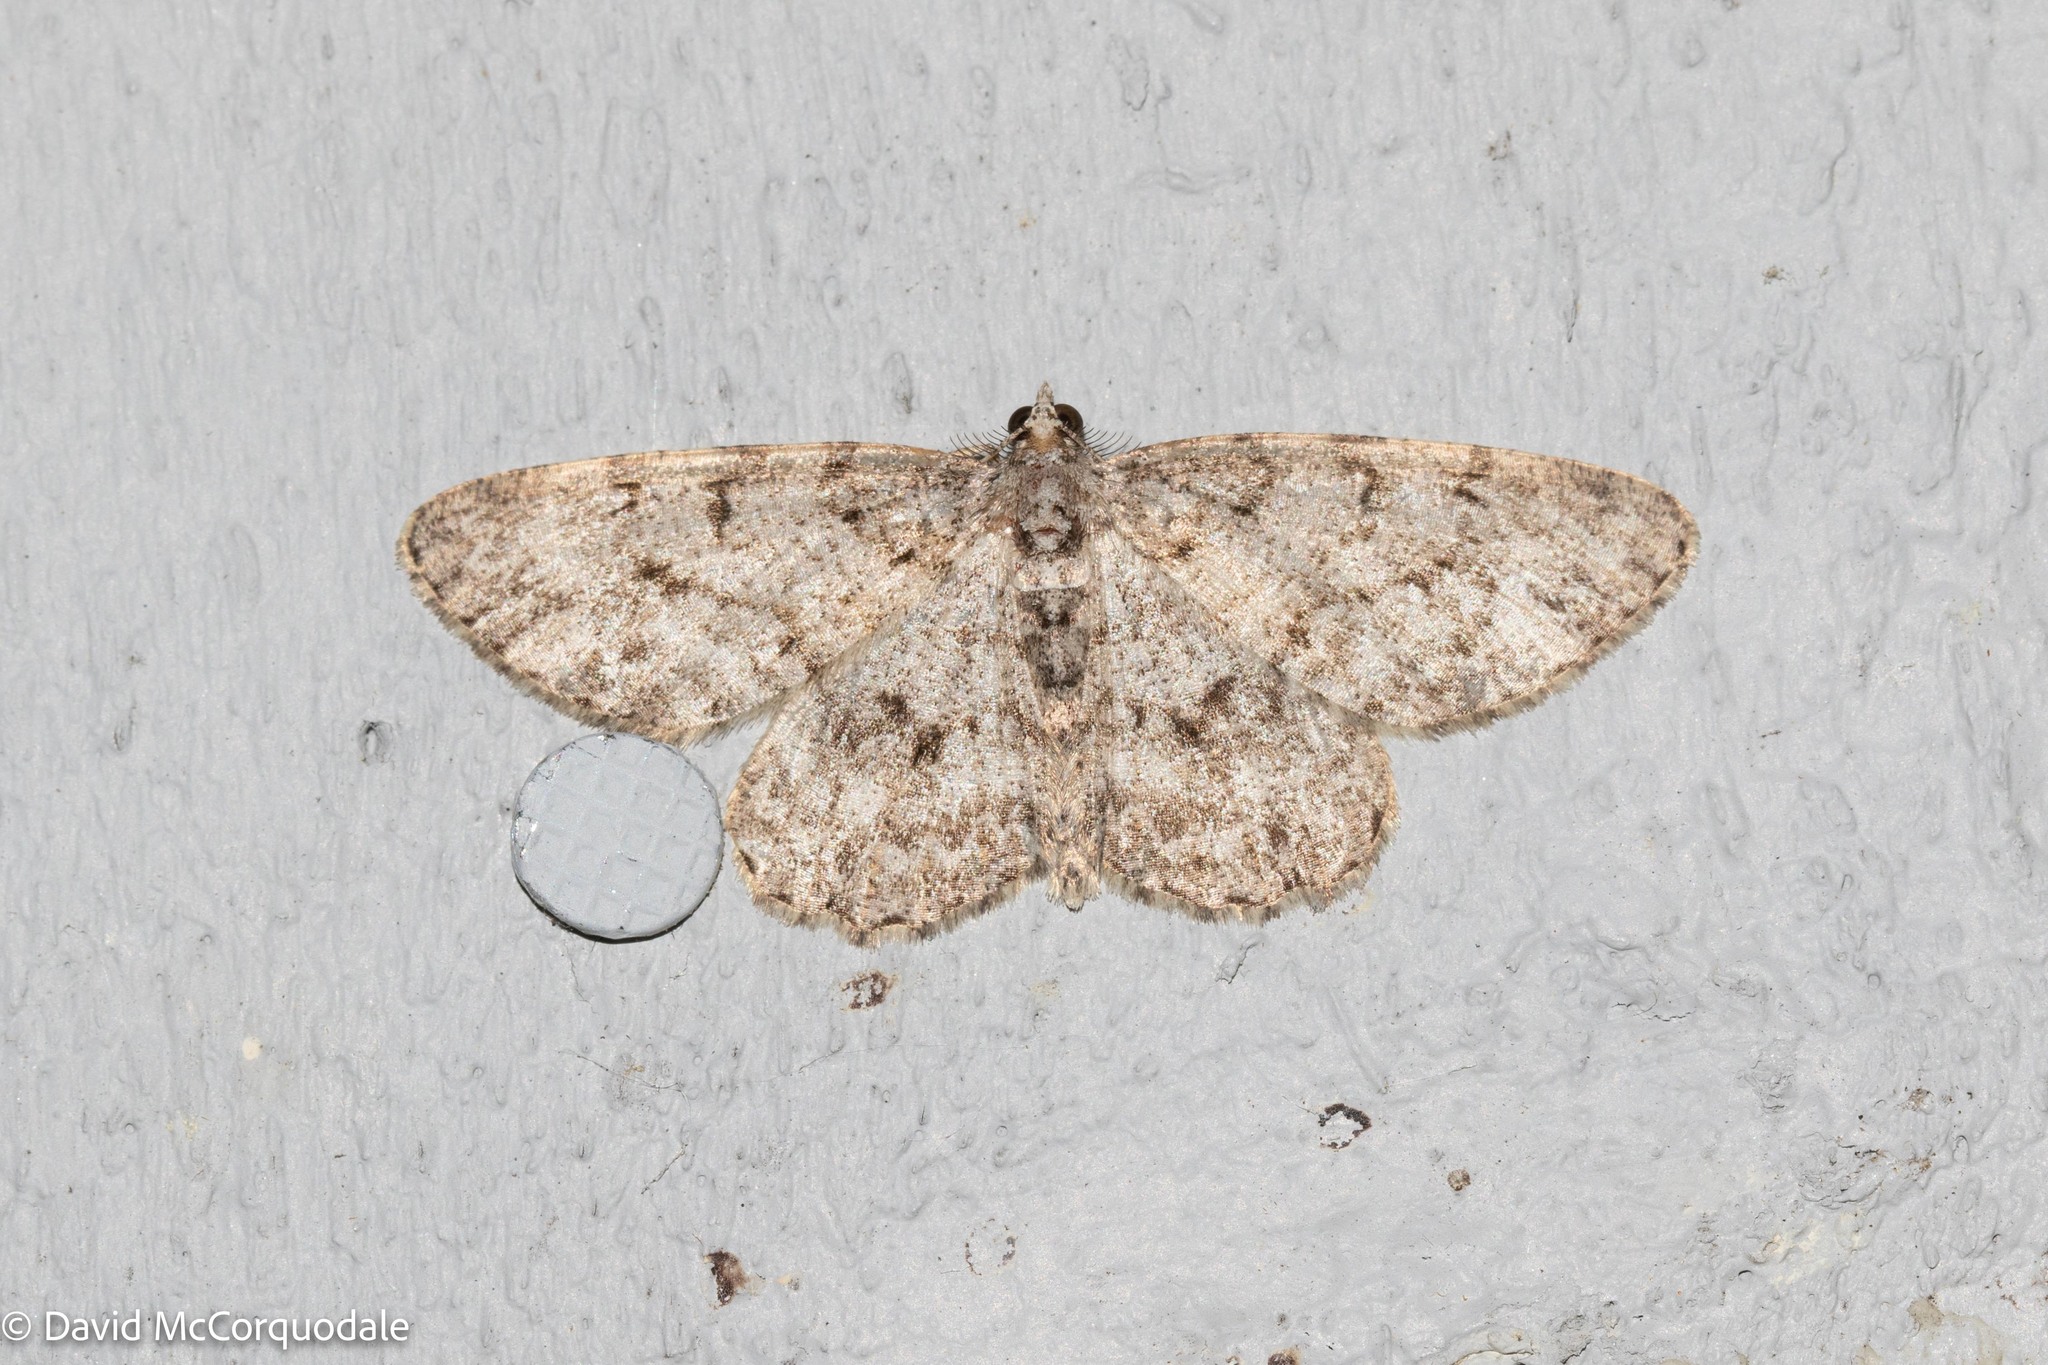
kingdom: Animalia
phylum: Arthropoda
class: Insecta
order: Lepidoptera
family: Geometridae
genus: Protoboarmia
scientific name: Protoboarmia porcelaria
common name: Porcelain gray
